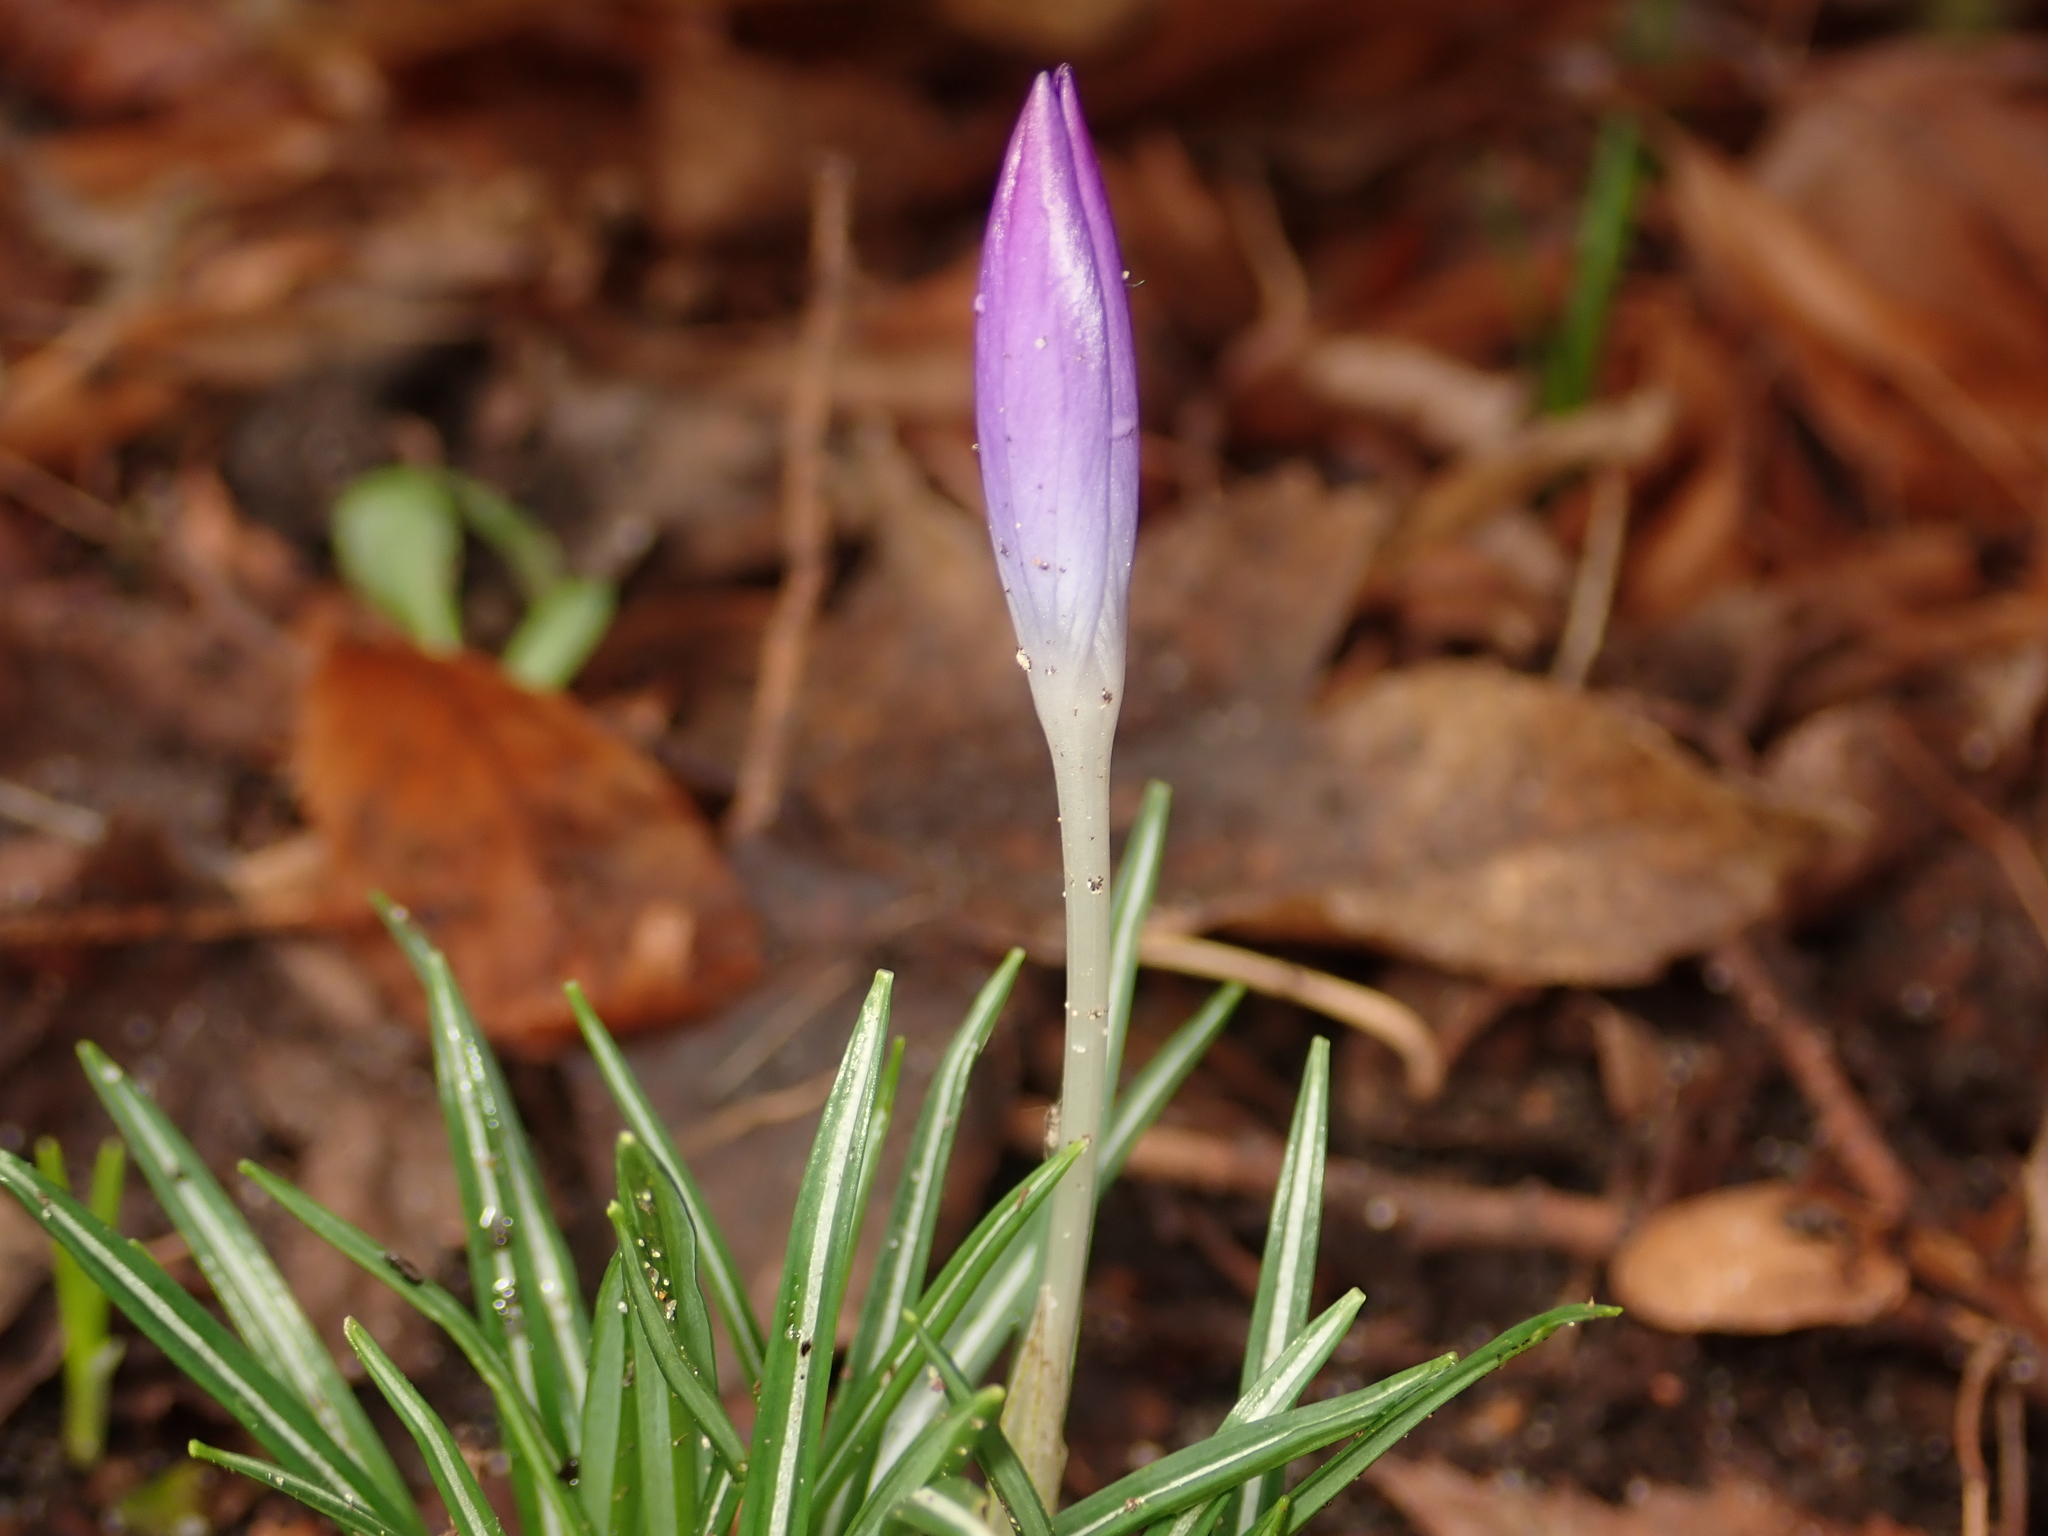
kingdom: Plantae
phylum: Tracheophyta
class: Liliopsida
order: Asparagales
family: Iridaceae
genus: Crocus
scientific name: Crocus tommasinianus
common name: Early crocus
